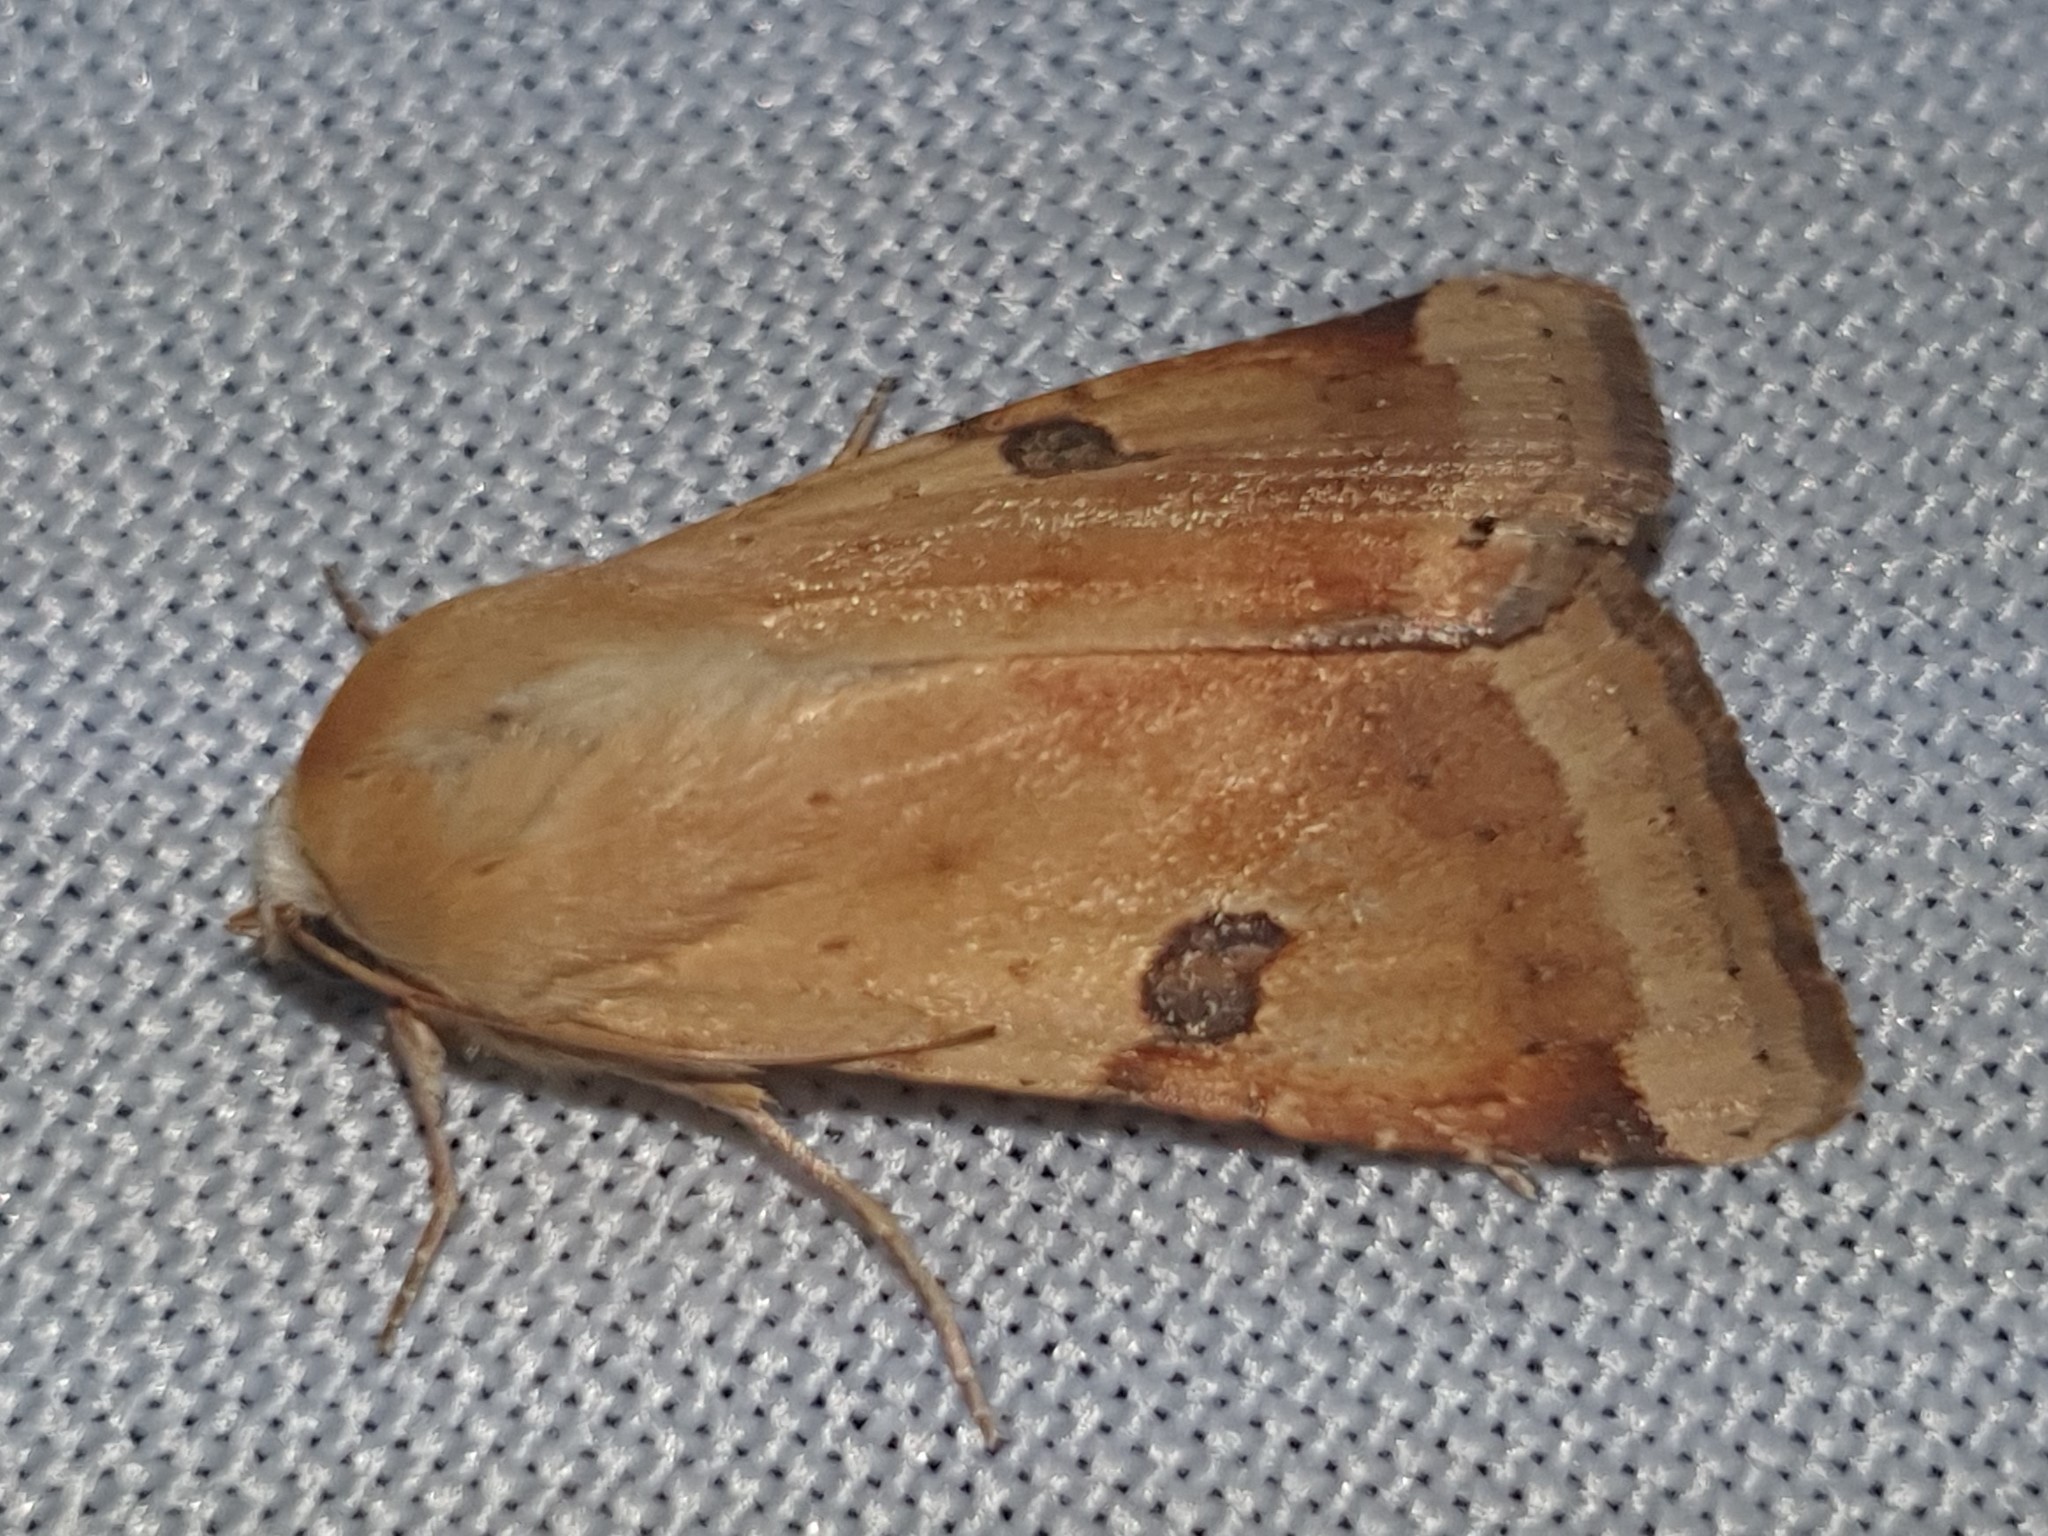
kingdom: Animalia
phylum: Arthropoda
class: Insecta
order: Lepidoptera
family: Noctuidae
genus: Heliothis
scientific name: Heliothis peltigera
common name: Bordered straw
